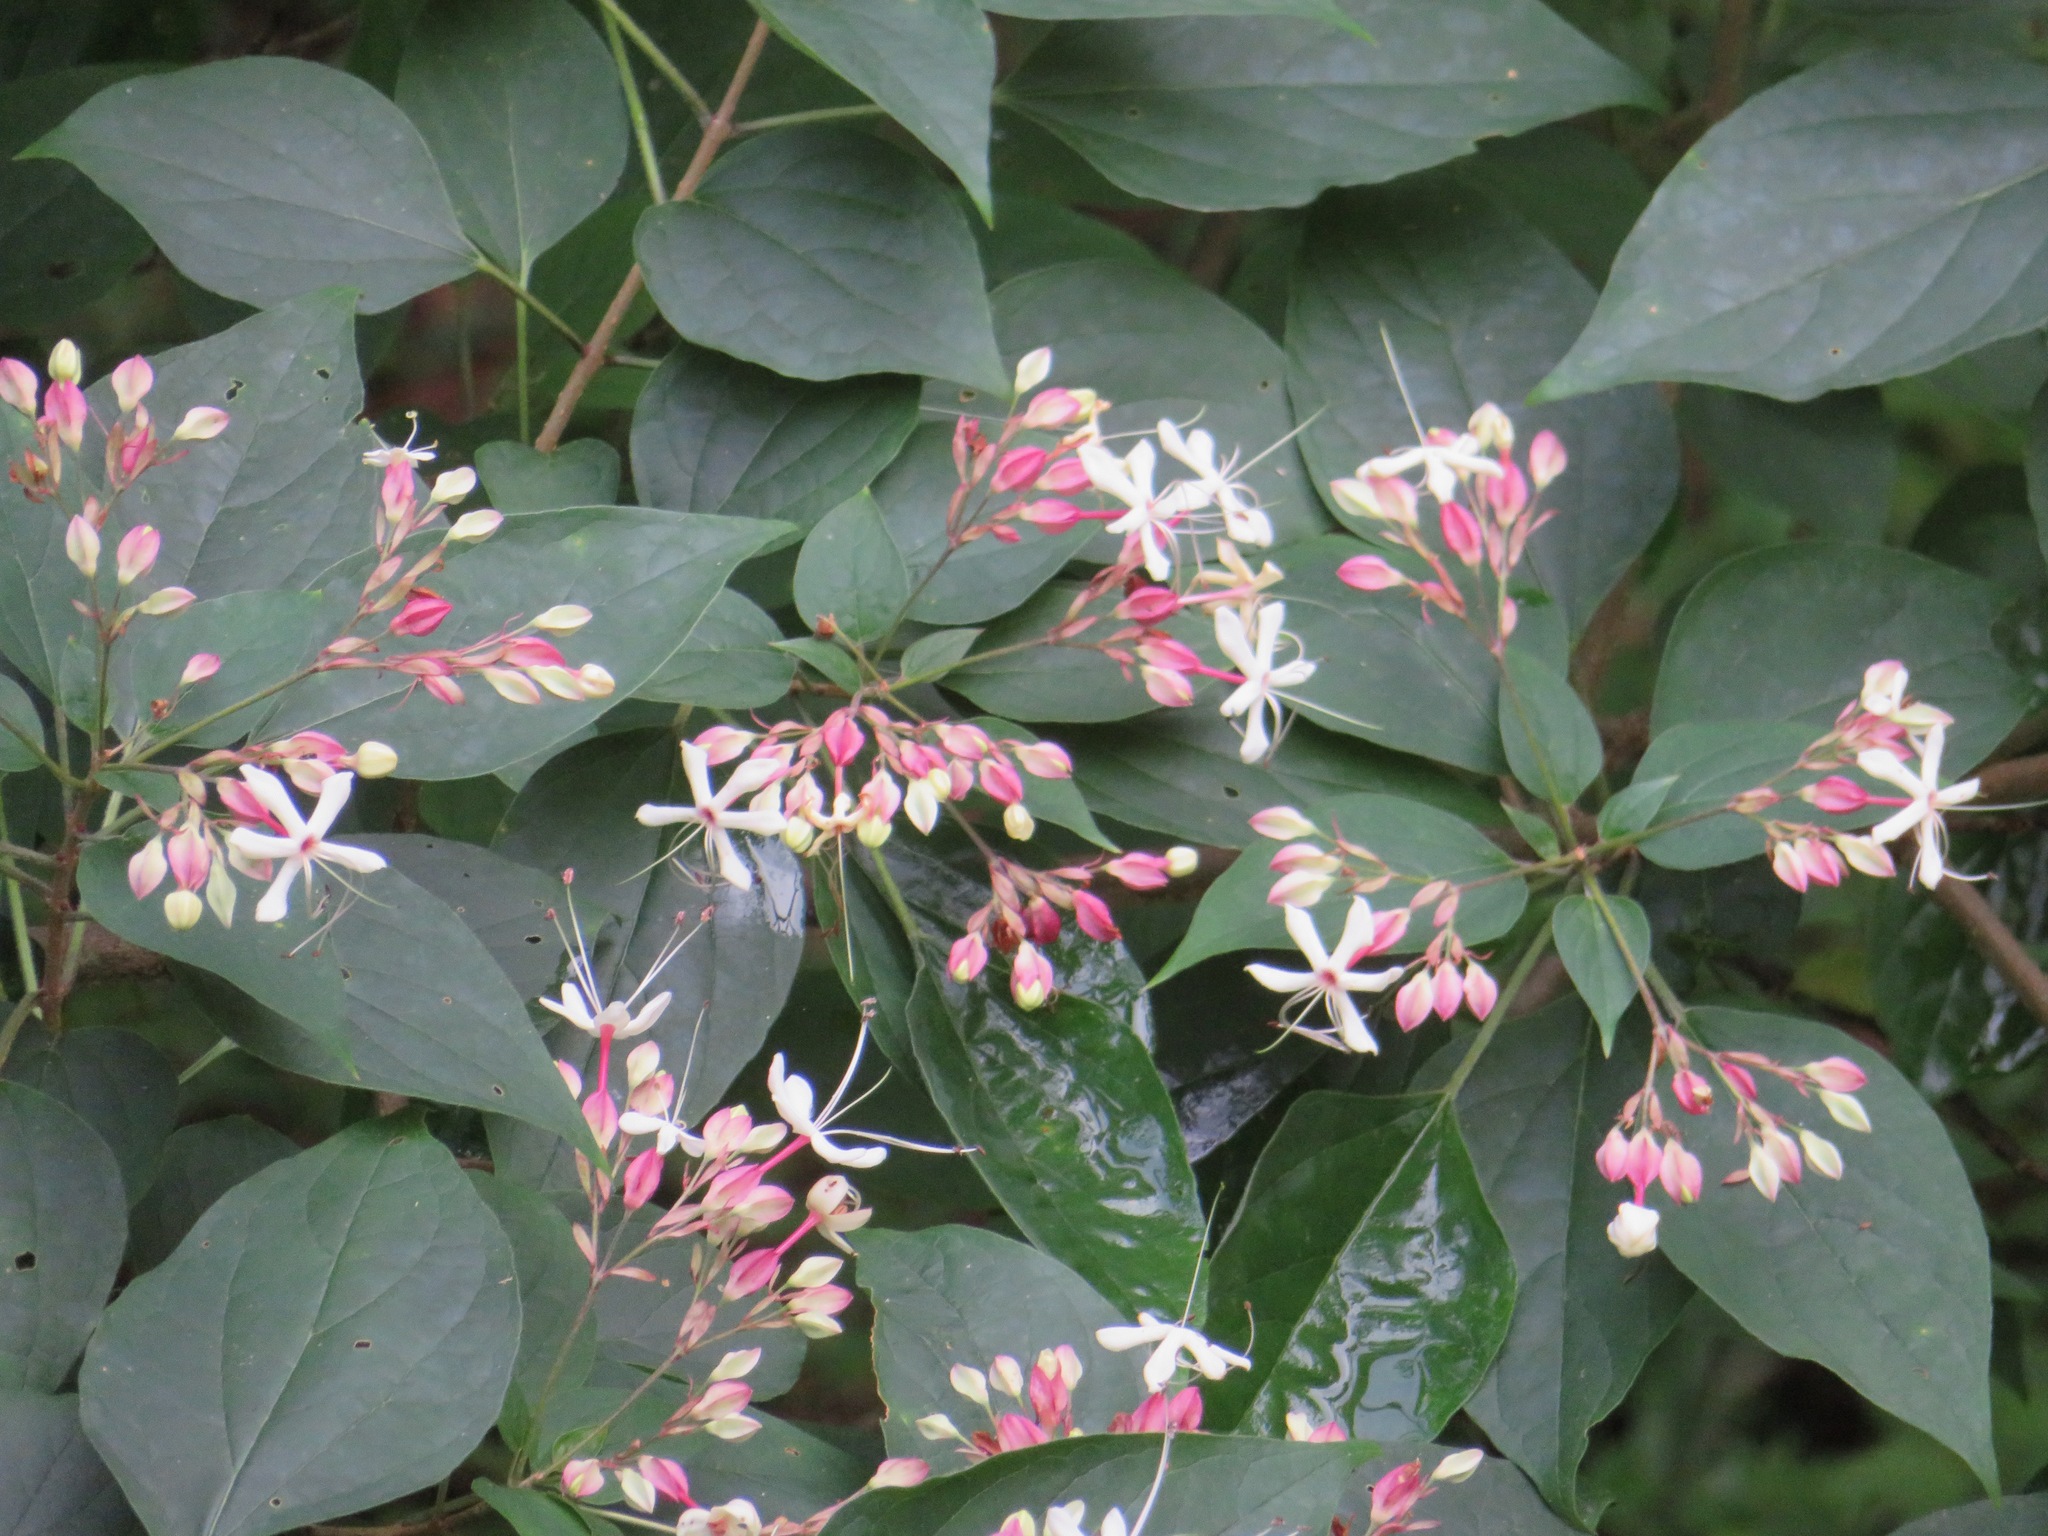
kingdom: Plantae
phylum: Tracheophyta
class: Magnoliopsida
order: Lamiales
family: Lamiaceae
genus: Clerodendrum
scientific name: Clerodendrum trichotomum
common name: Harlequin glorybower
